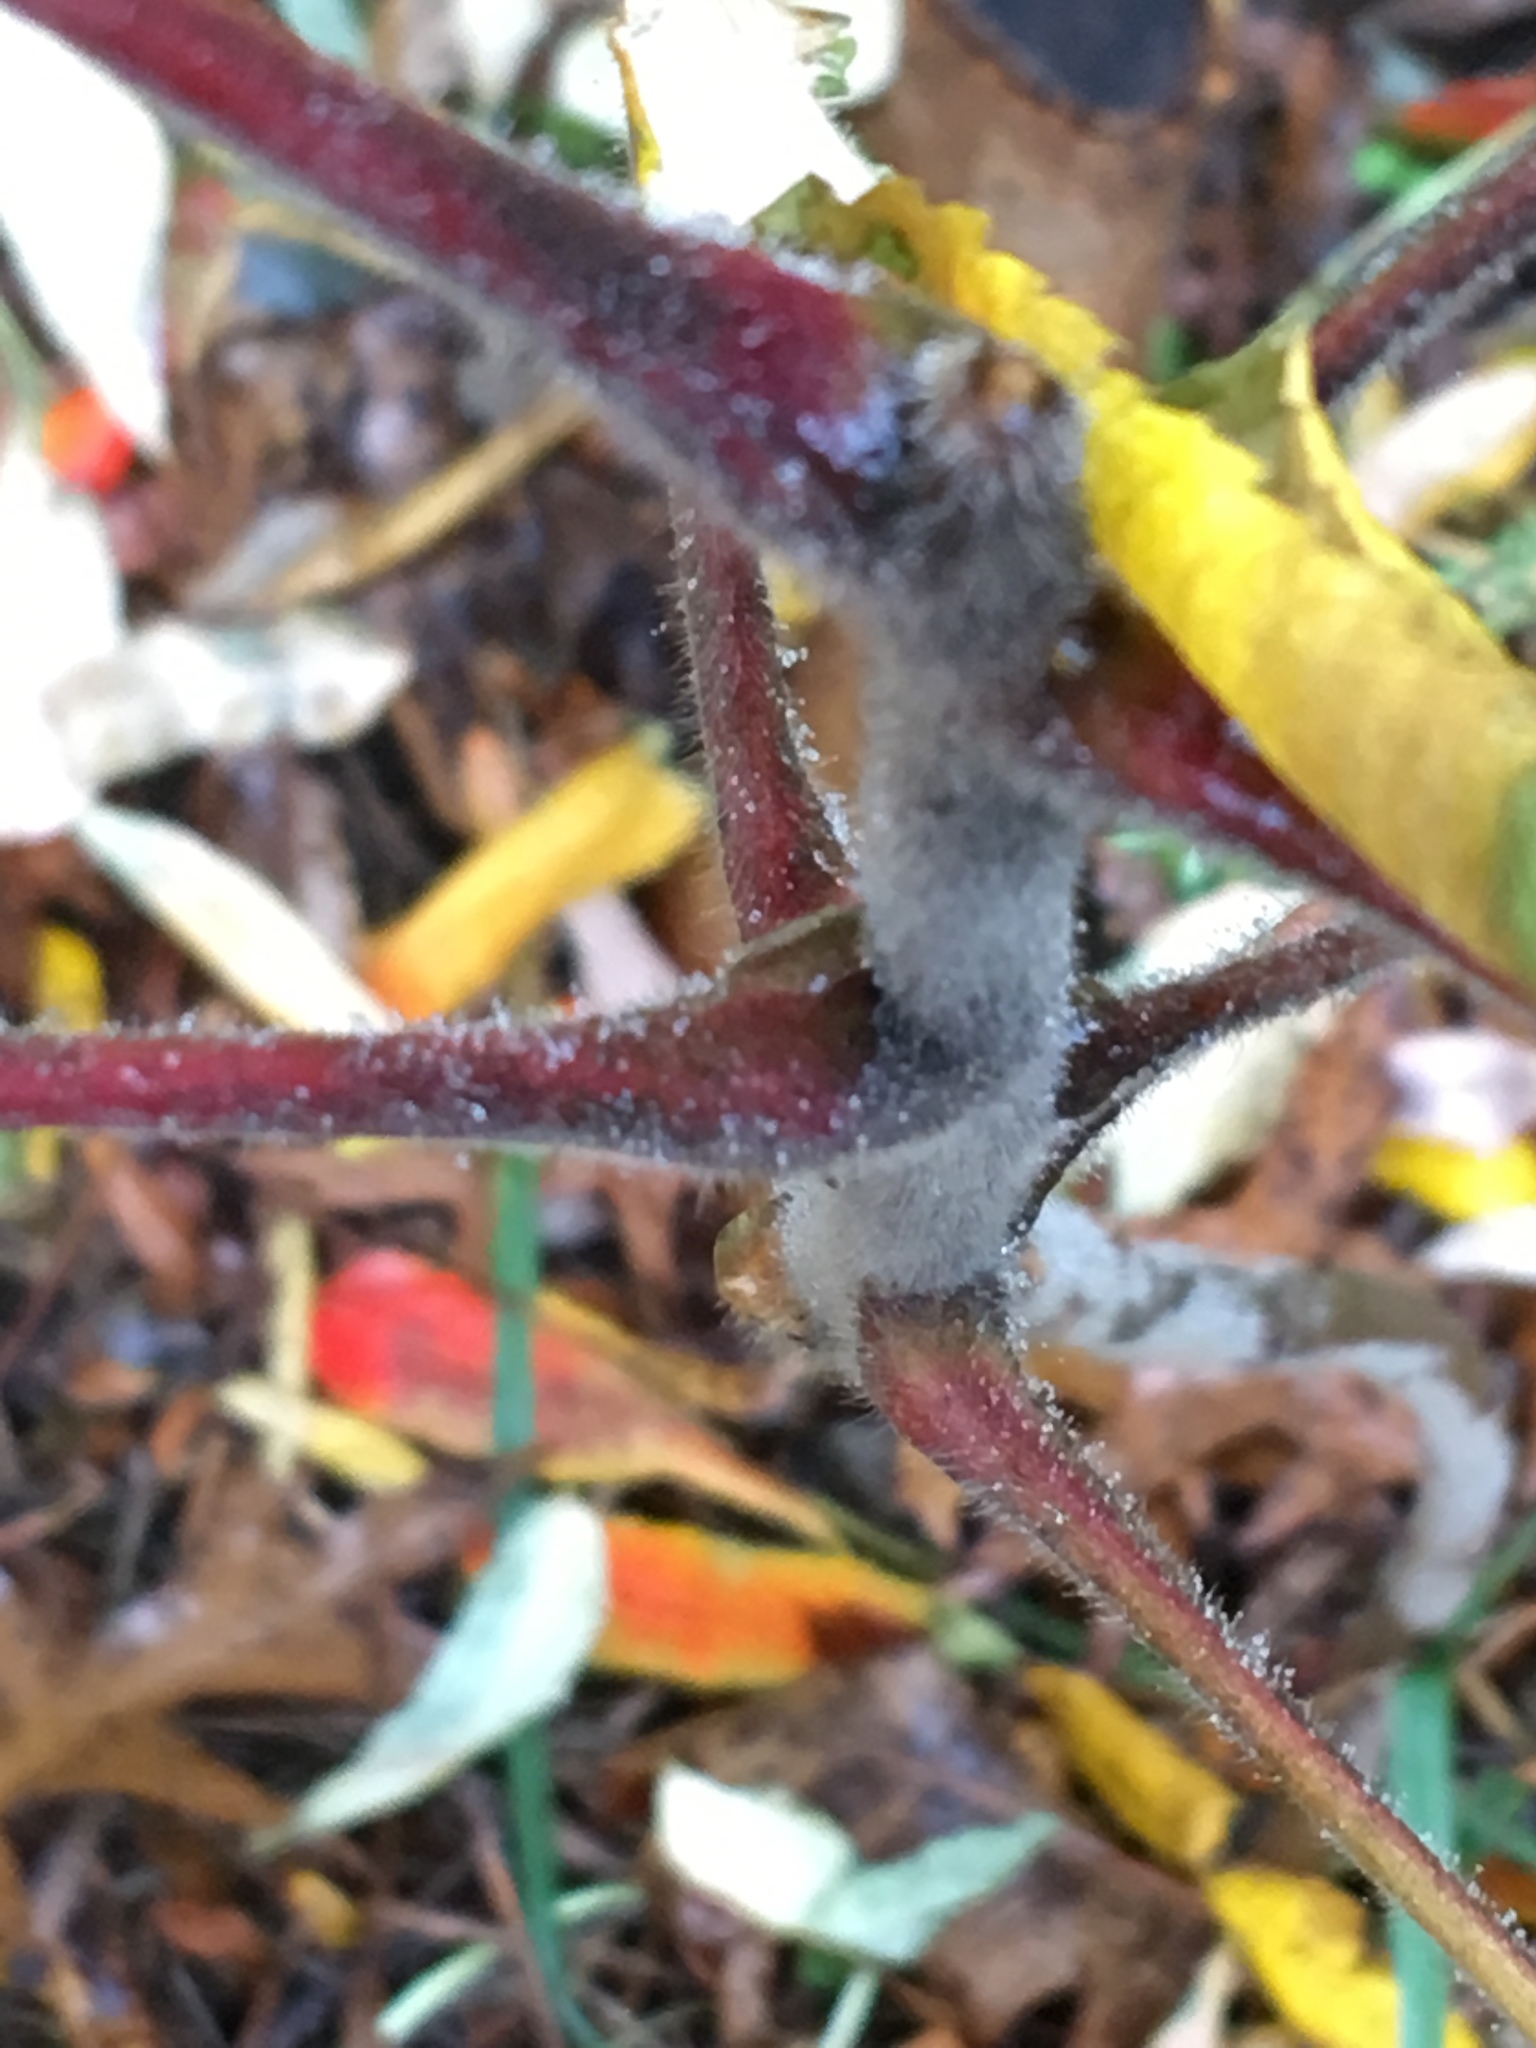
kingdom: Plantae
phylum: Tracheophyta
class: Magnoliopsida
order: Sapindales
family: Anacardiaceae
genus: Rhus
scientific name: Rhus typhina
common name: Staghorn sumac
